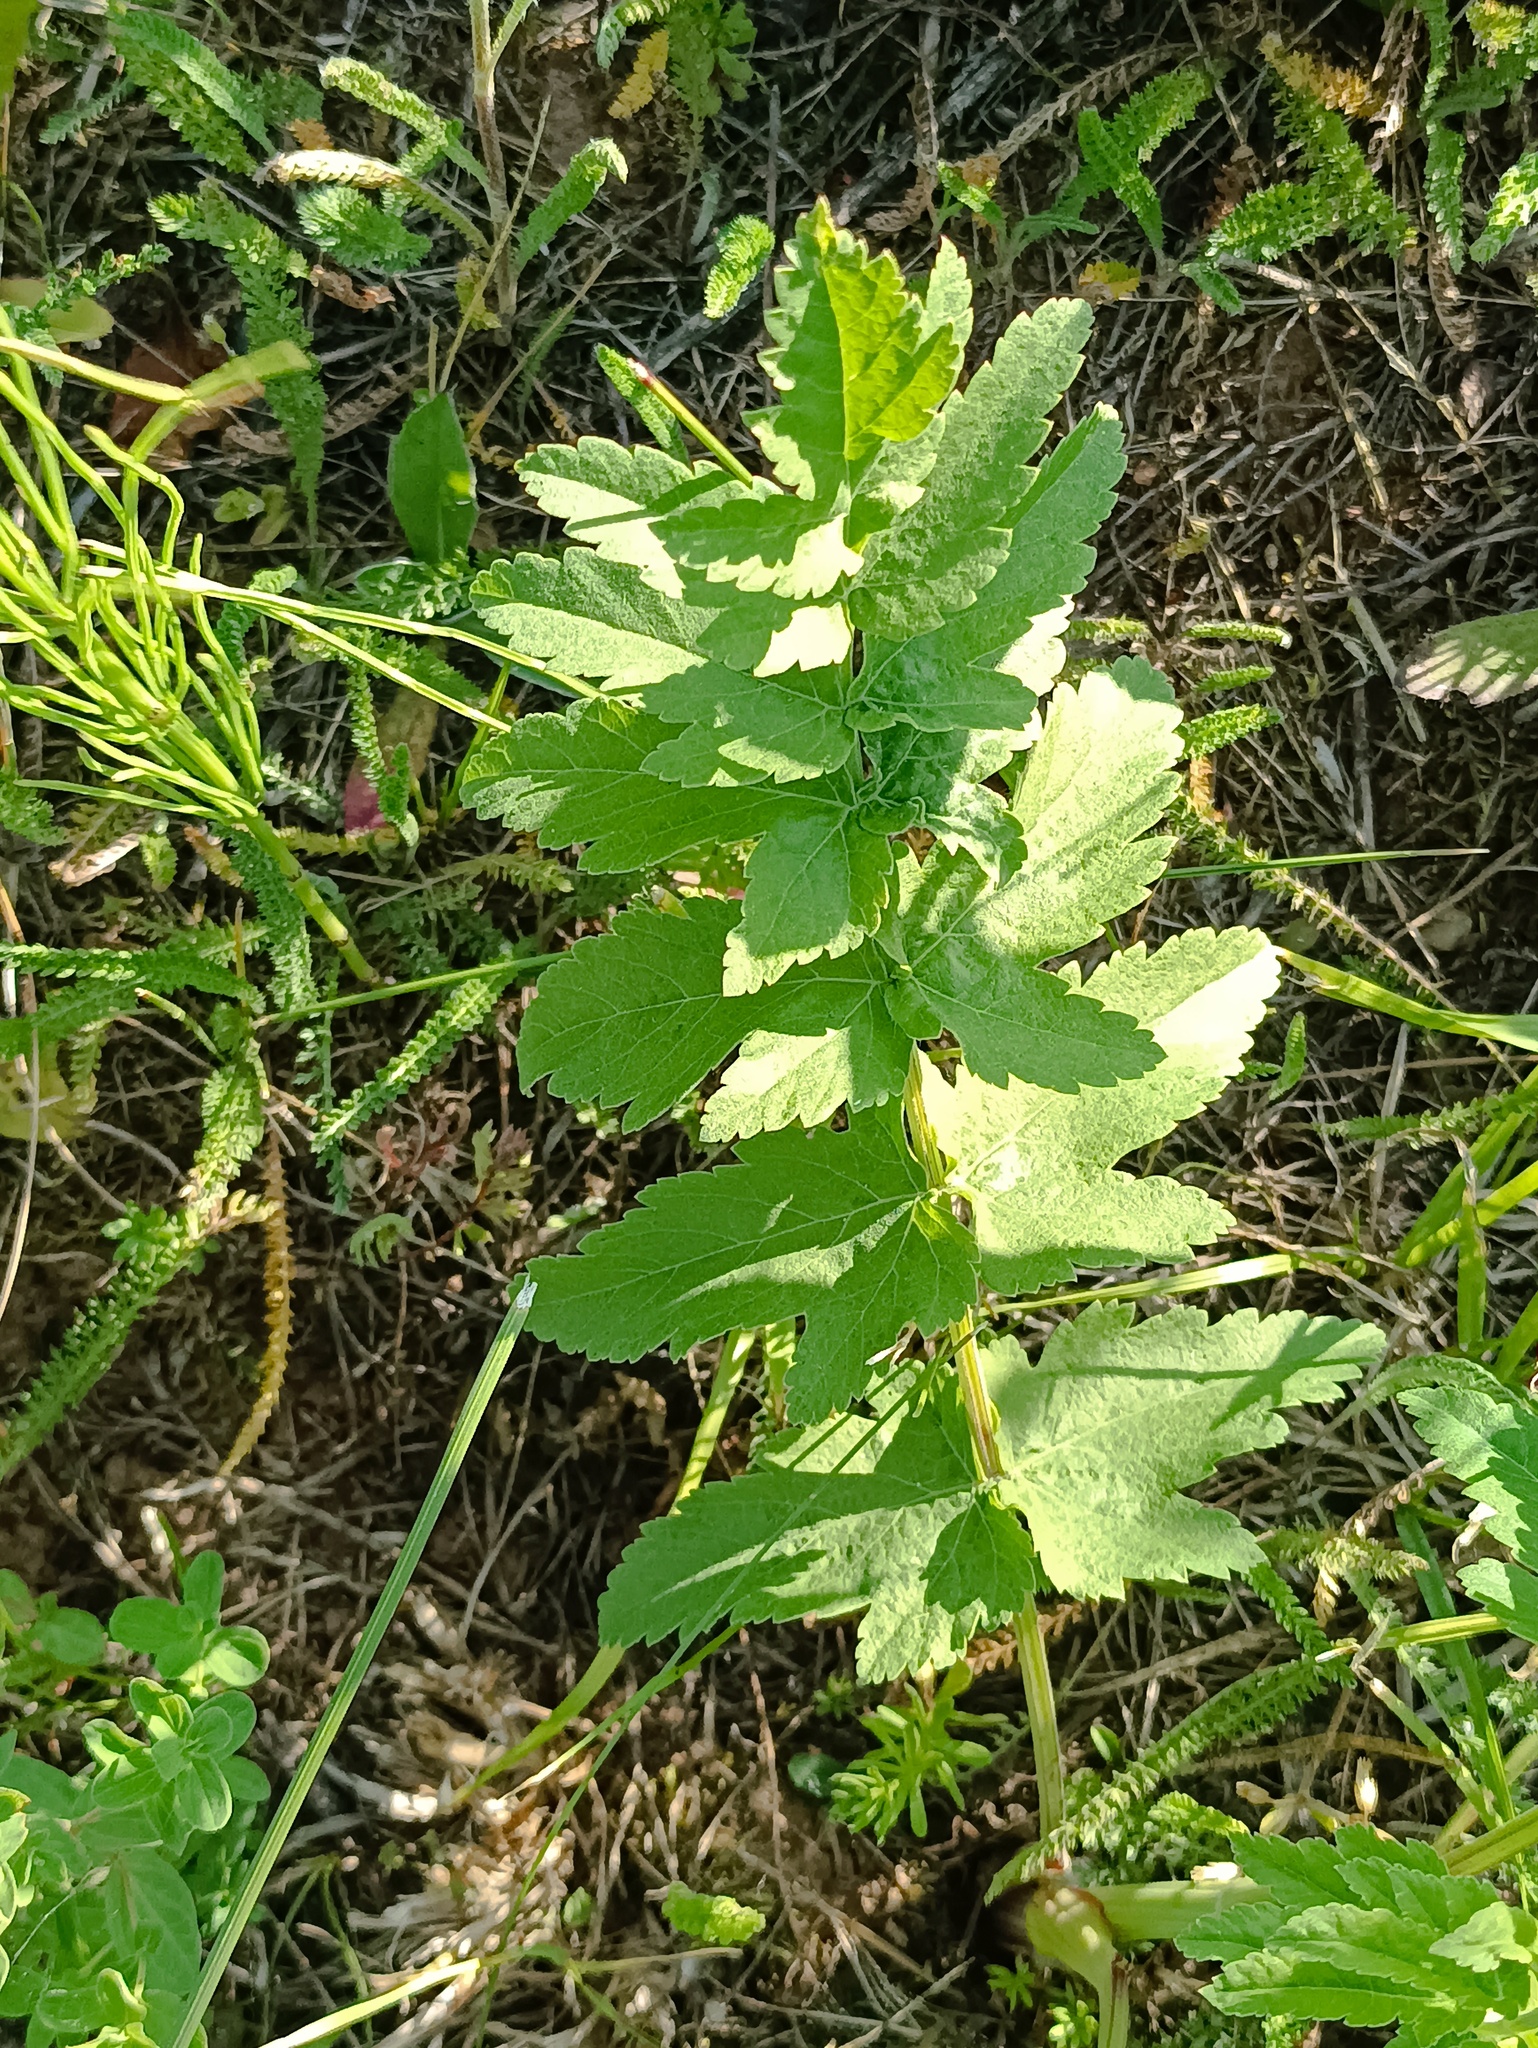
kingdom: Plantae
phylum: Tracheophyta
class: Magnoliopsida
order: Apiales
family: Apiaceae
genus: Pastinaca
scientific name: Pastinaca sativa
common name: Wild parsnip
